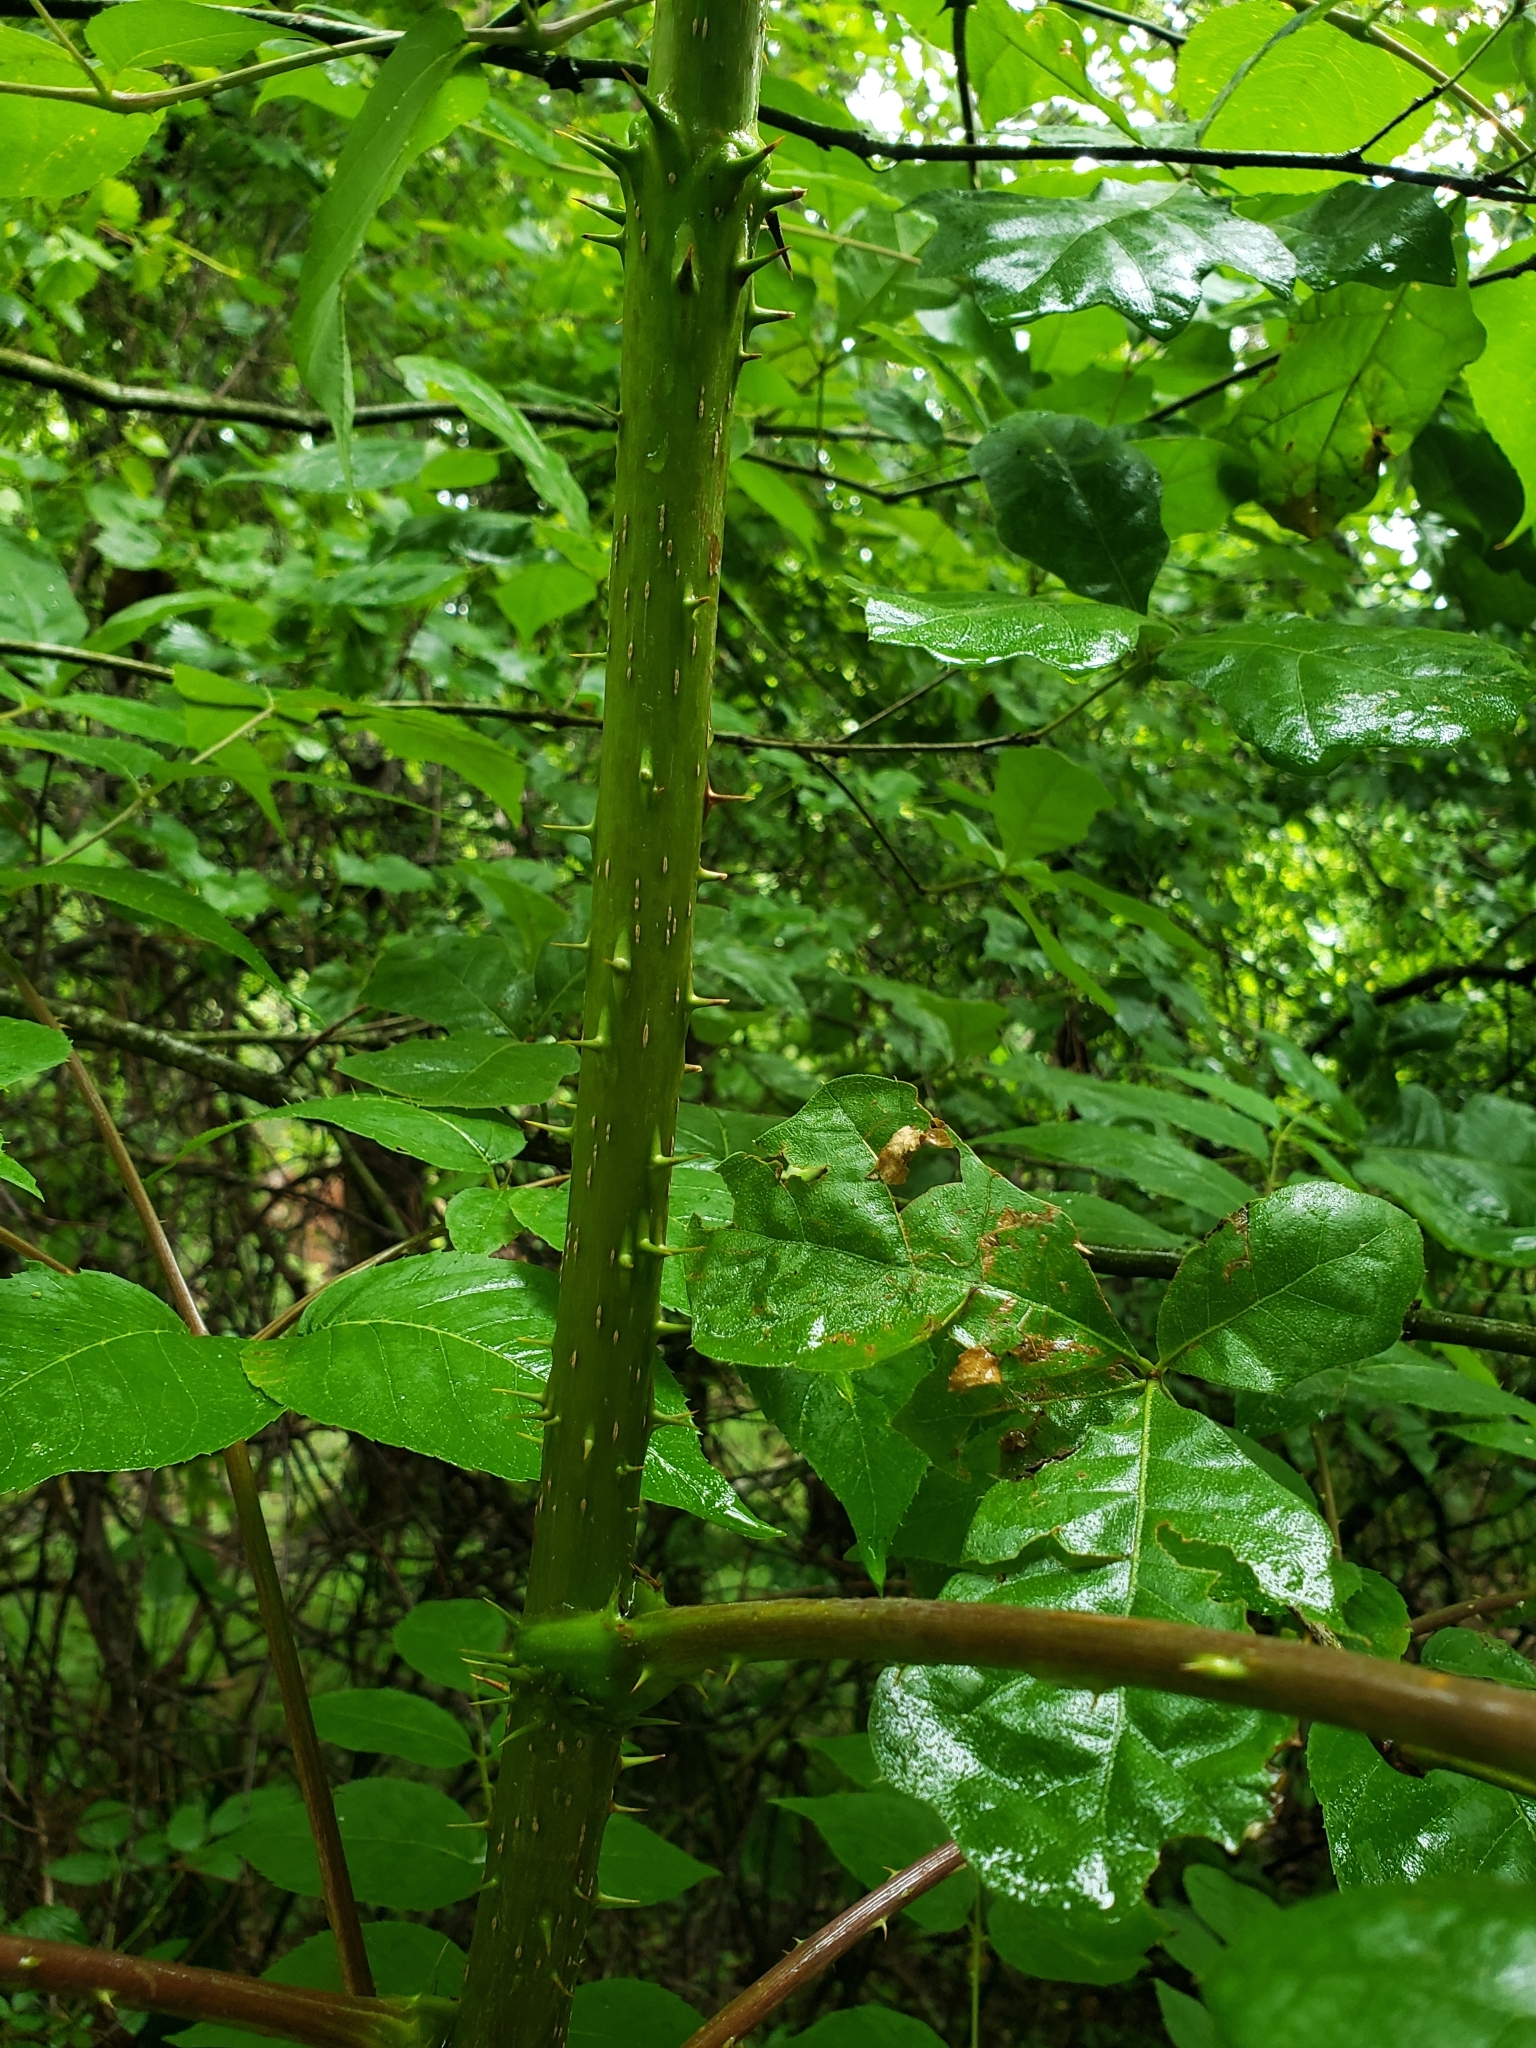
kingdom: Plantae
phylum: Tracheophyta
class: Magnoliopsida
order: Apiales
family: Araliaceae
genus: Aralia
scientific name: Aralia spinosa
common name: Hercules'-club
